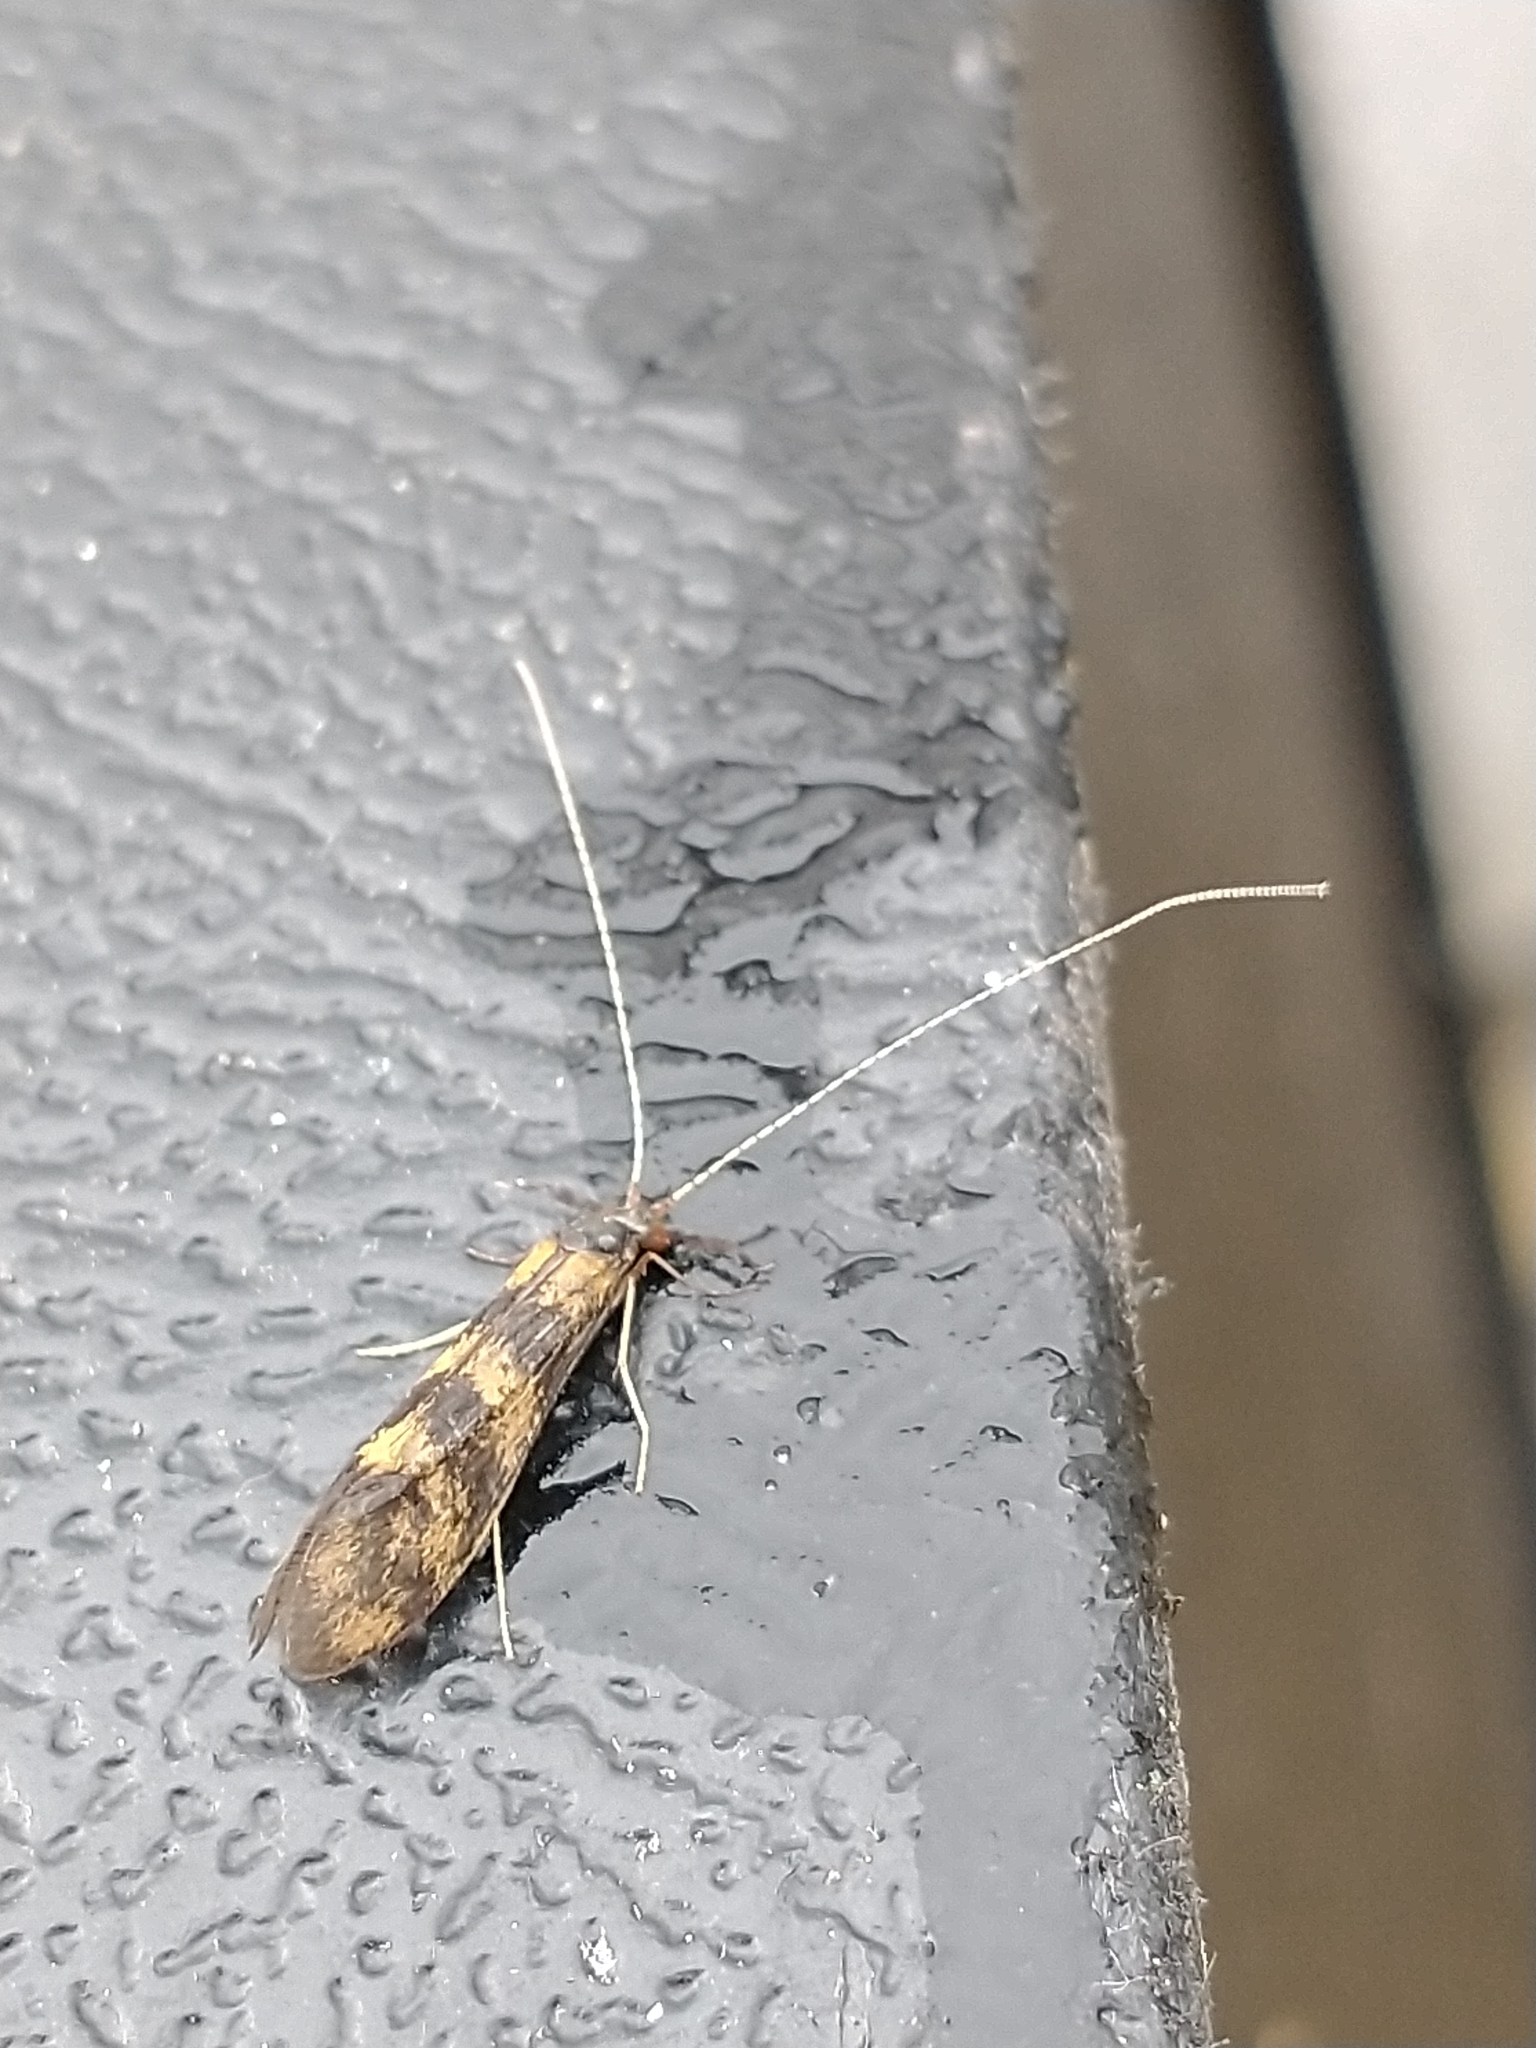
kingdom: Animalia
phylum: Arthropoda
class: Insecta
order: Trichoptera
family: Leptoceridae
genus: Mystacides
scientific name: Mystacides longicornis
